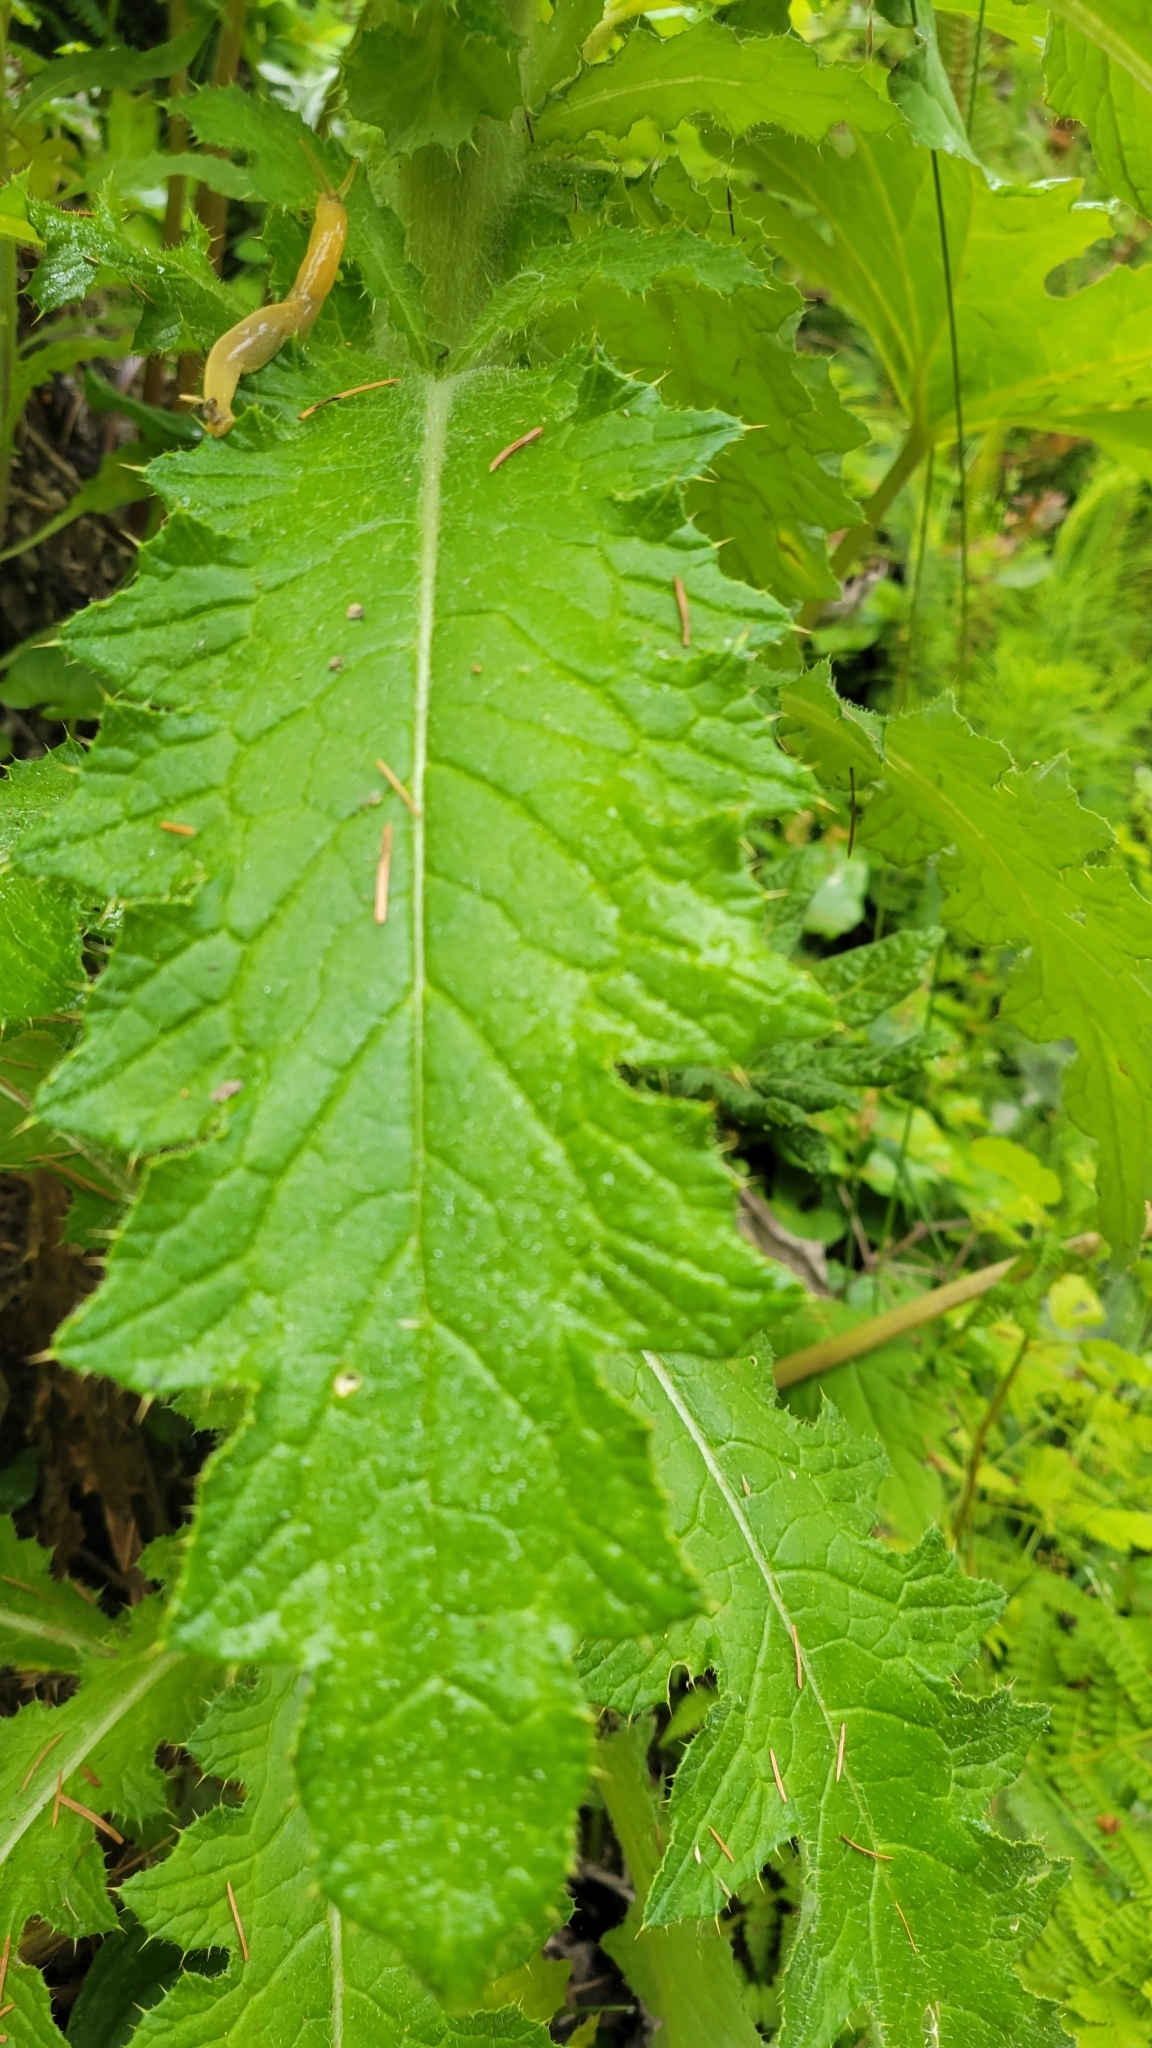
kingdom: Plantae
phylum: Tracheophyta
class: Magnoliopsida
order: Asterales
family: Asteraceae
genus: Cirsium
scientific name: Cirsium brevistylum
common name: Indian thistle
